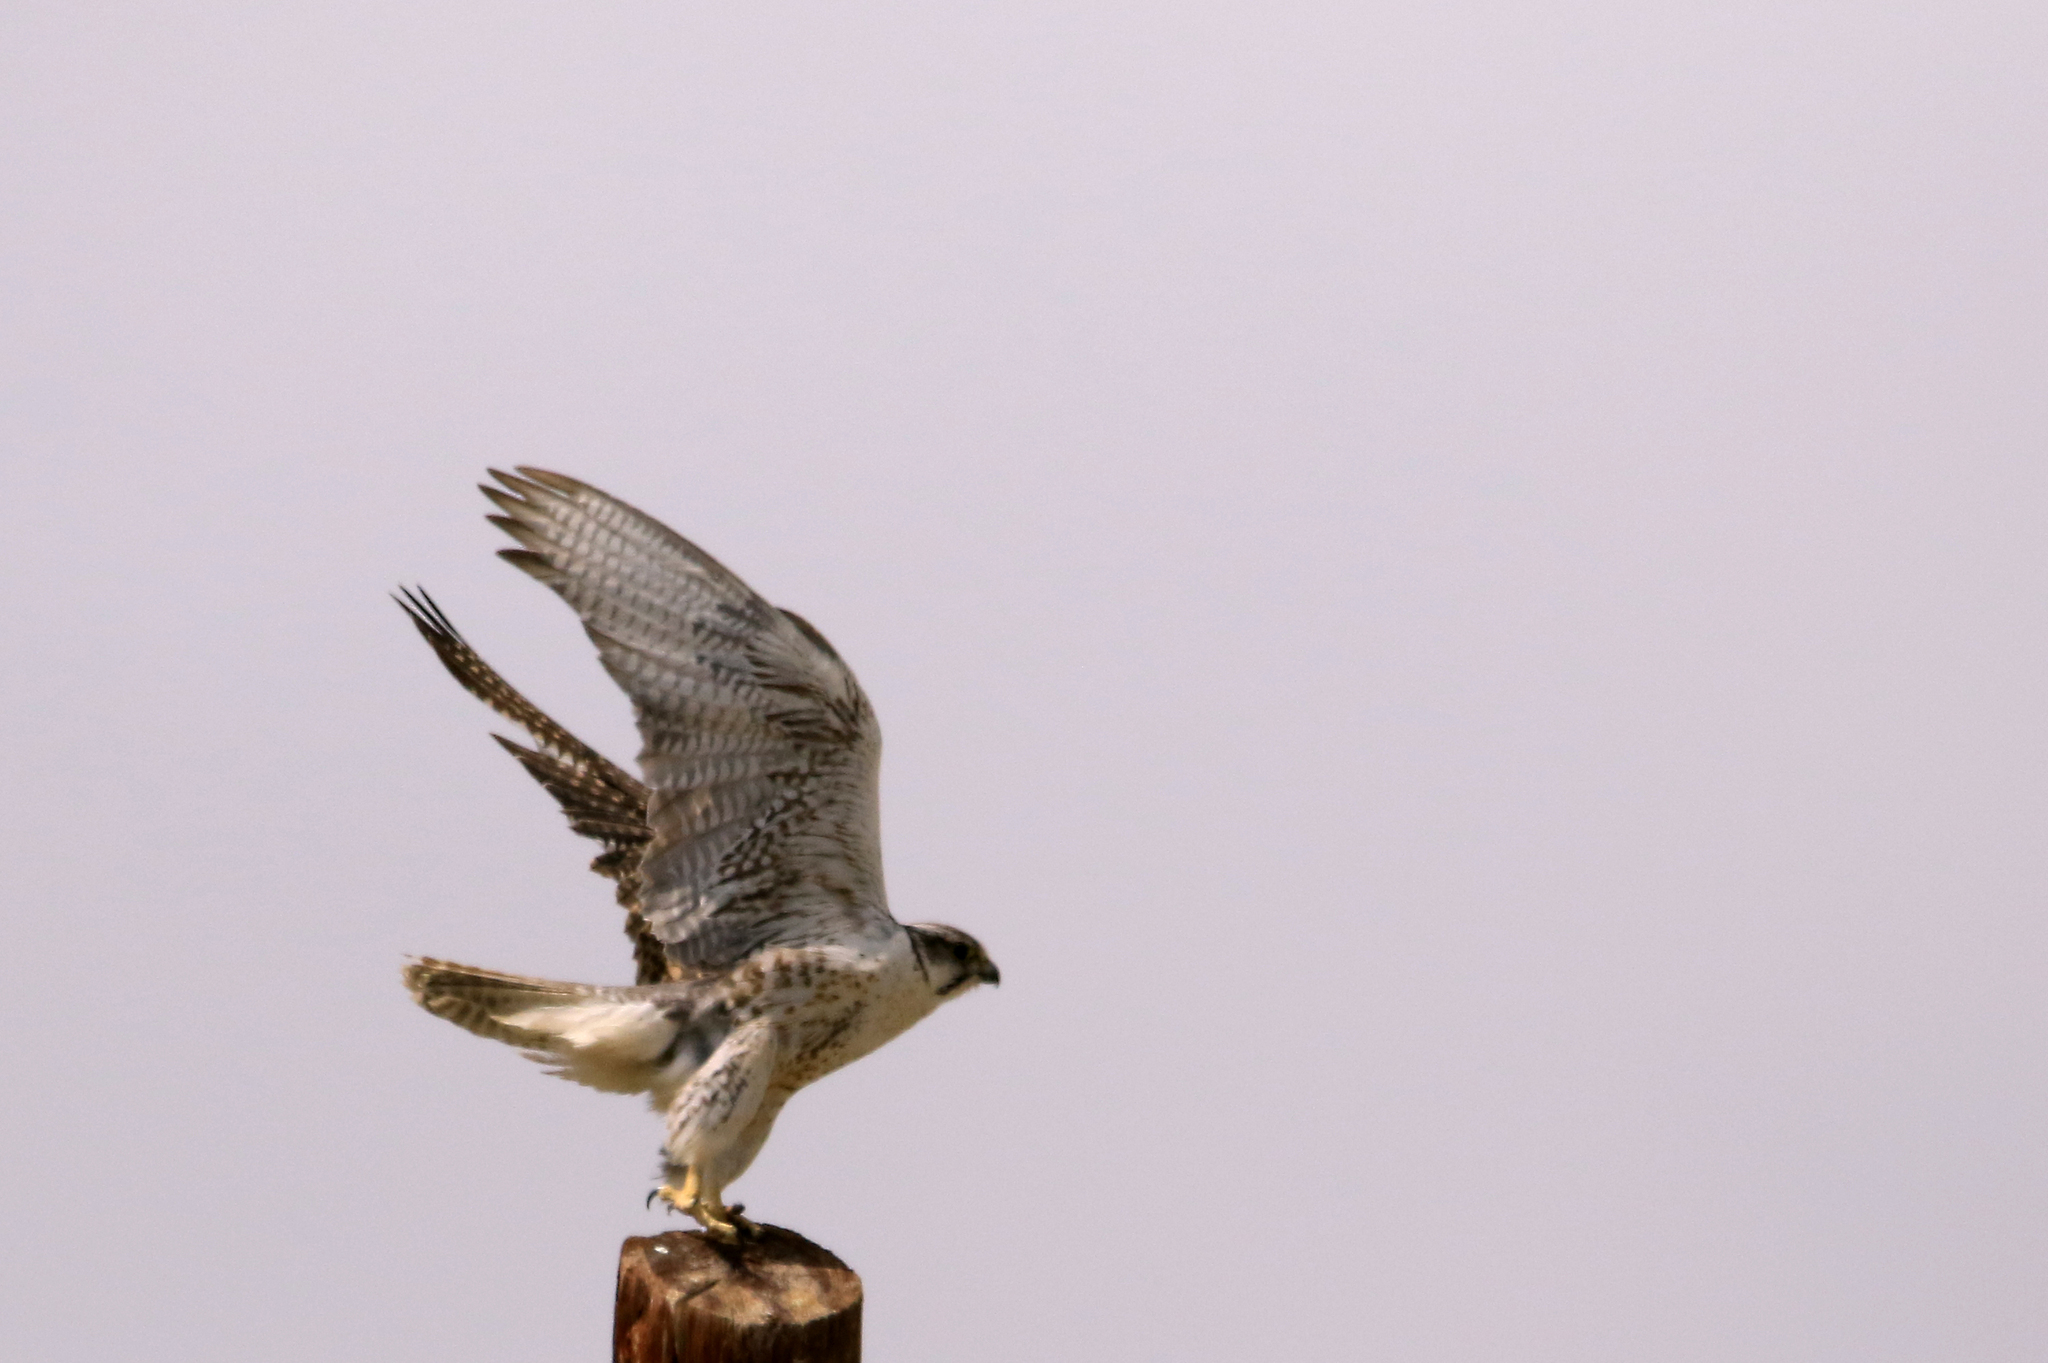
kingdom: Animalia
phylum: Chordata
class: Aves
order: Falconiformes
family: Falconidae
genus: Falco
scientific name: Falco cherrug
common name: Saker falcon
